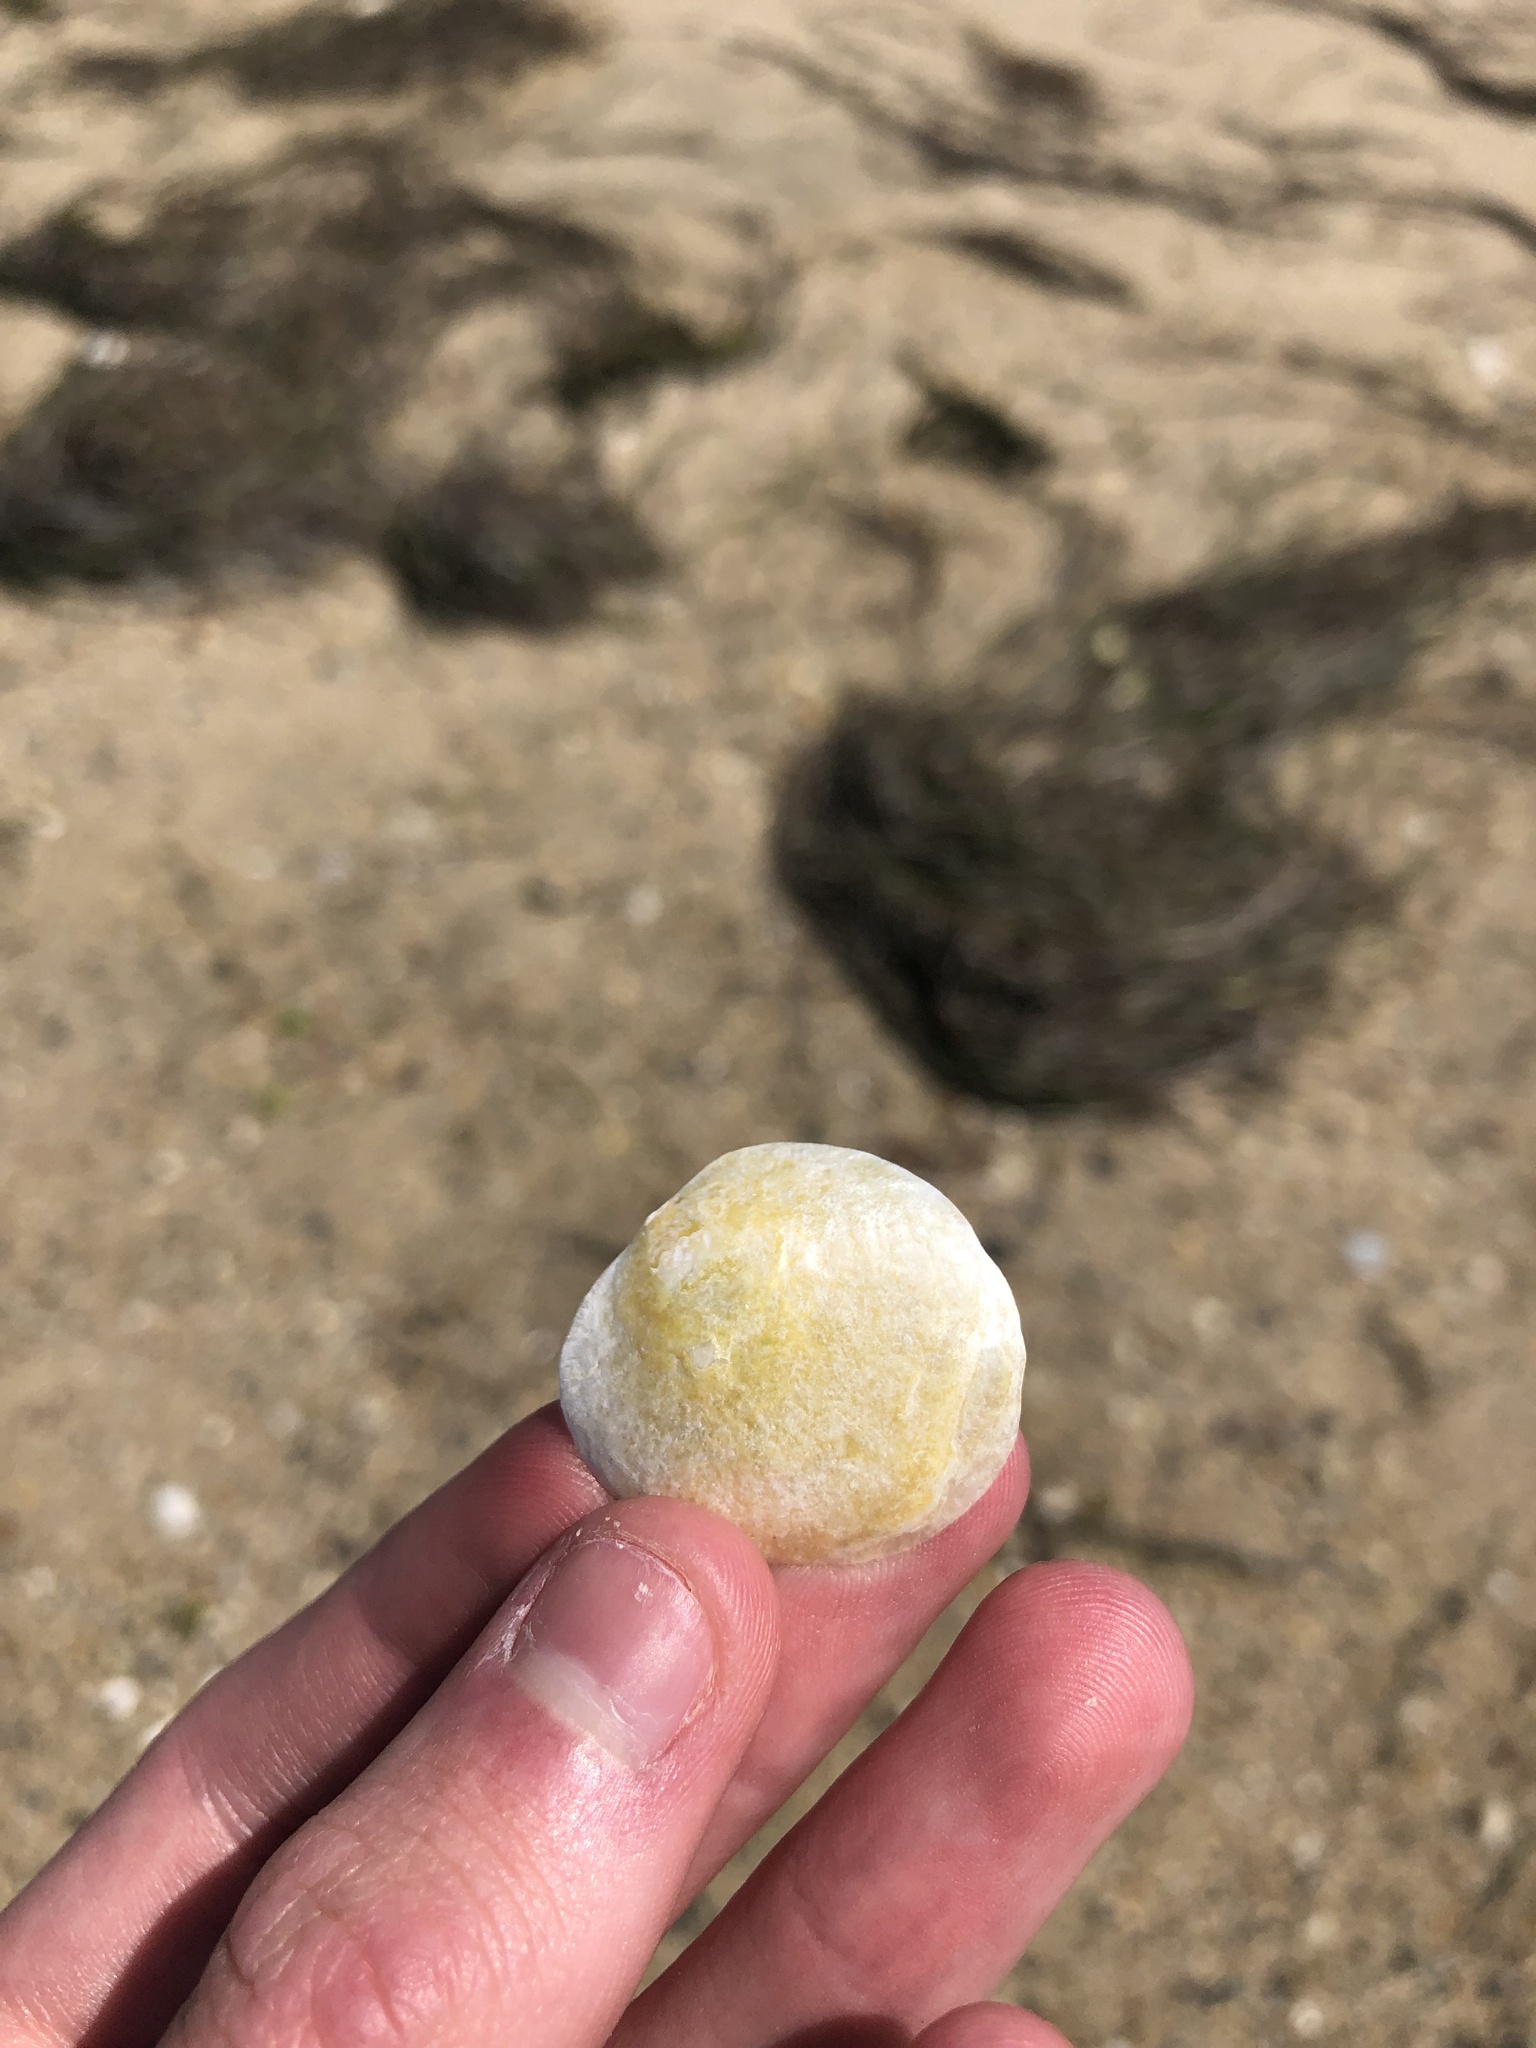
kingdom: Animalia
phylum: Mollusca
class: Bivalvia
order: Pectinida
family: Anomiidae
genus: Anomia
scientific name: Anomia simplex
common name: Common jingle shell
